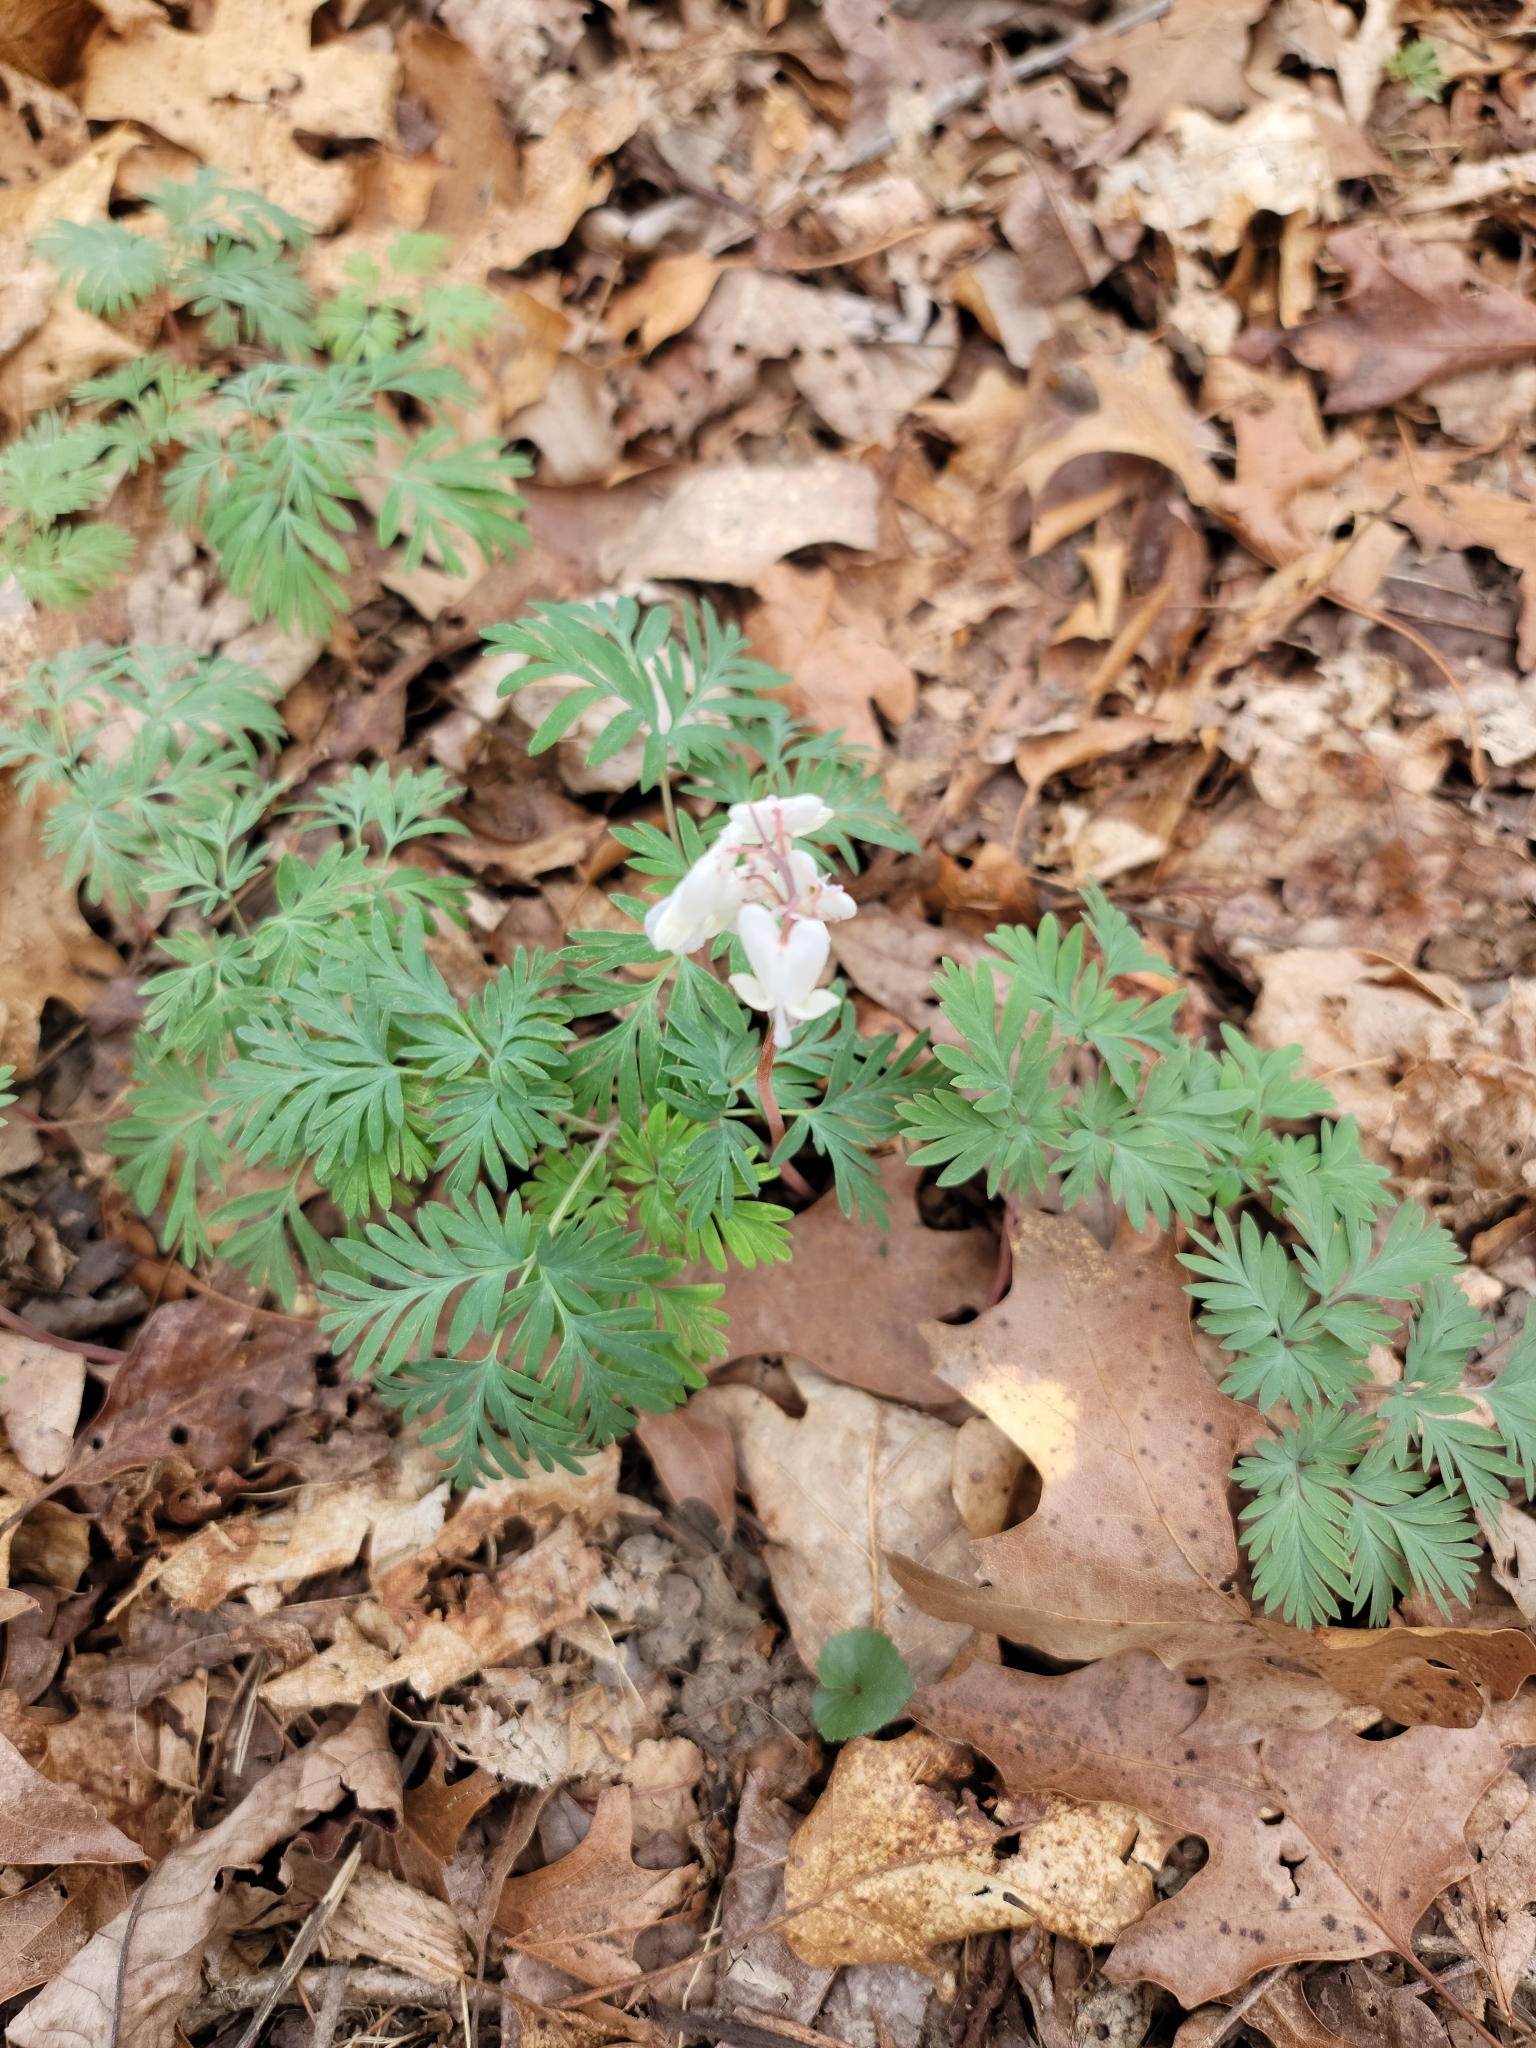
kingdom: Plantae
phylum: Tracheophyta
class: Magnoliopsida
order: Ranunculales
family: Papaveraceae
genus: Dicentra
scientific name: Dicentra canadensis
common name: Squirrel-corn
